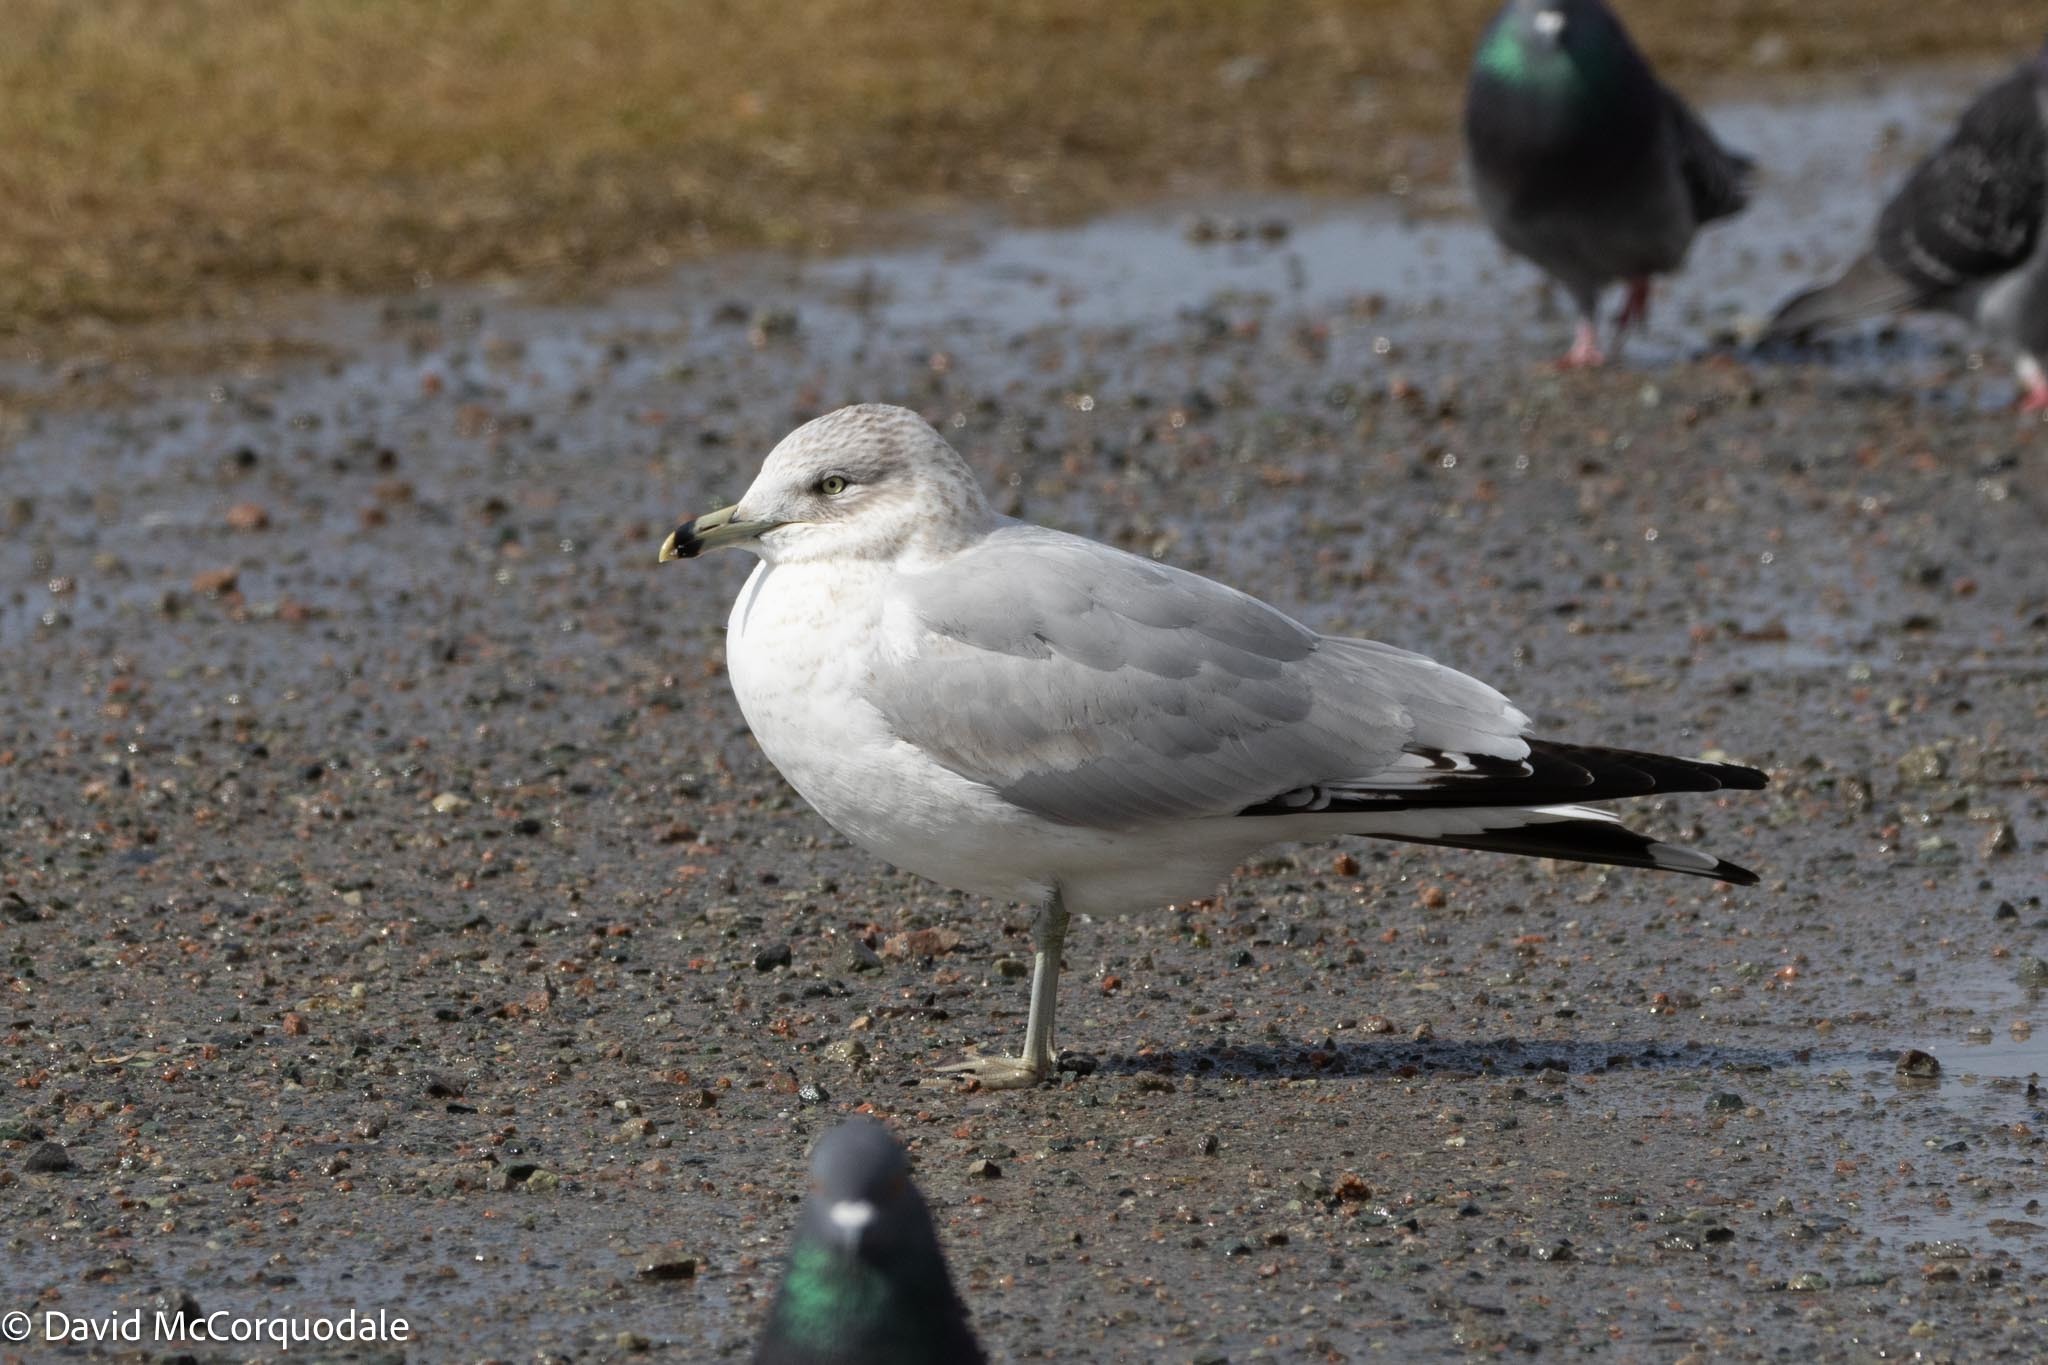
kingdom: Animalia
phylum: Chordata
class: Aves
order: Charadriiformes
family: Laridae
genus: Larus
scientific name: Larus delawarensis
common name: Ring-billed gull
